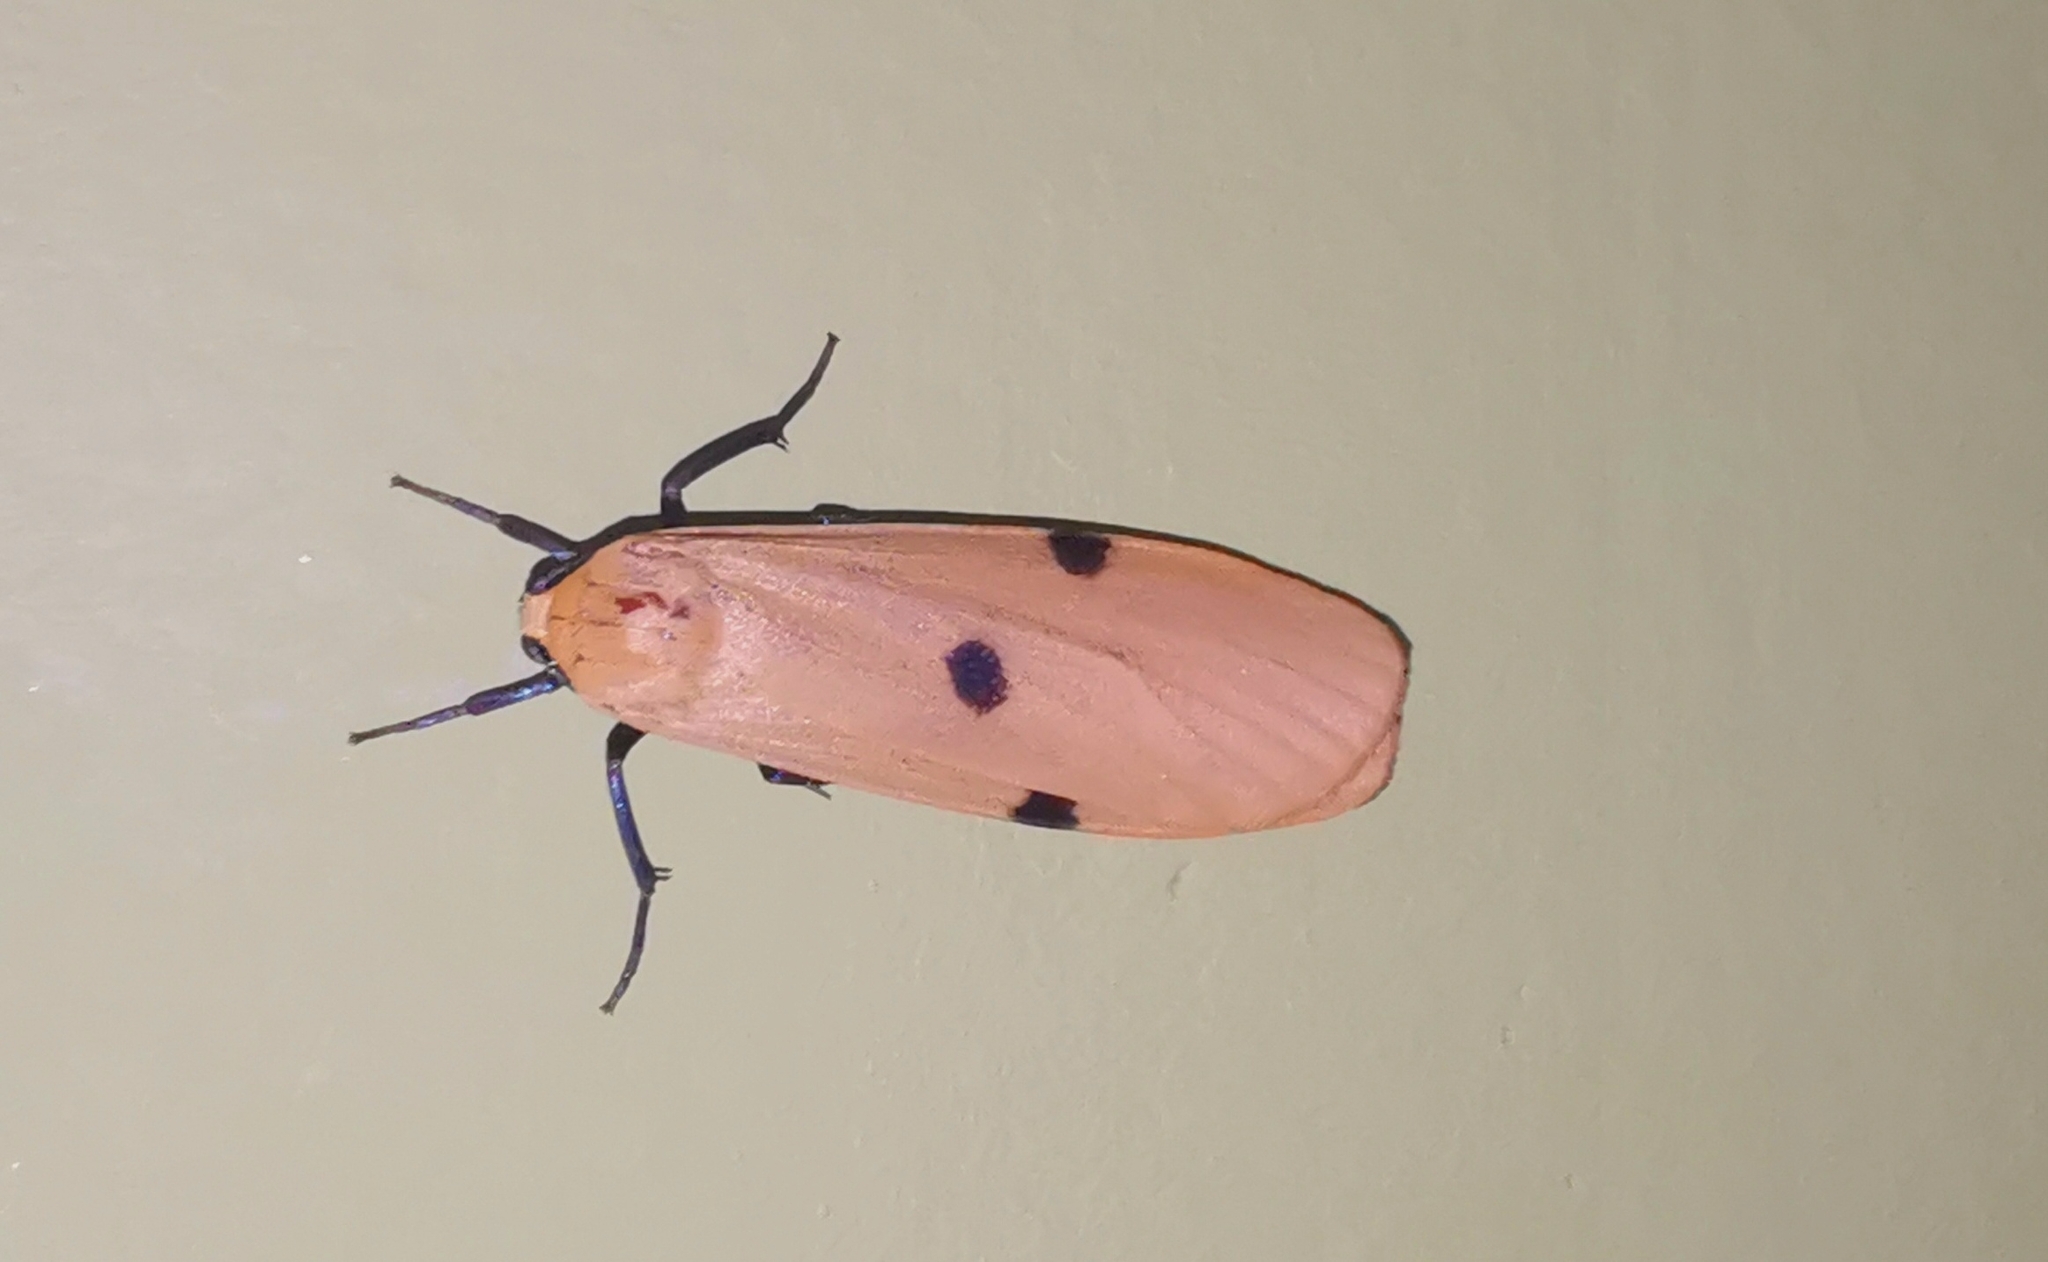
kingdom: Animalia
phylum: Arthropoda
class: Insecta
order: Lepidoptera
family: Erebidae
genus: Lithosia
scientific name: Lithosia quadra
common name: Four-spotted footman
